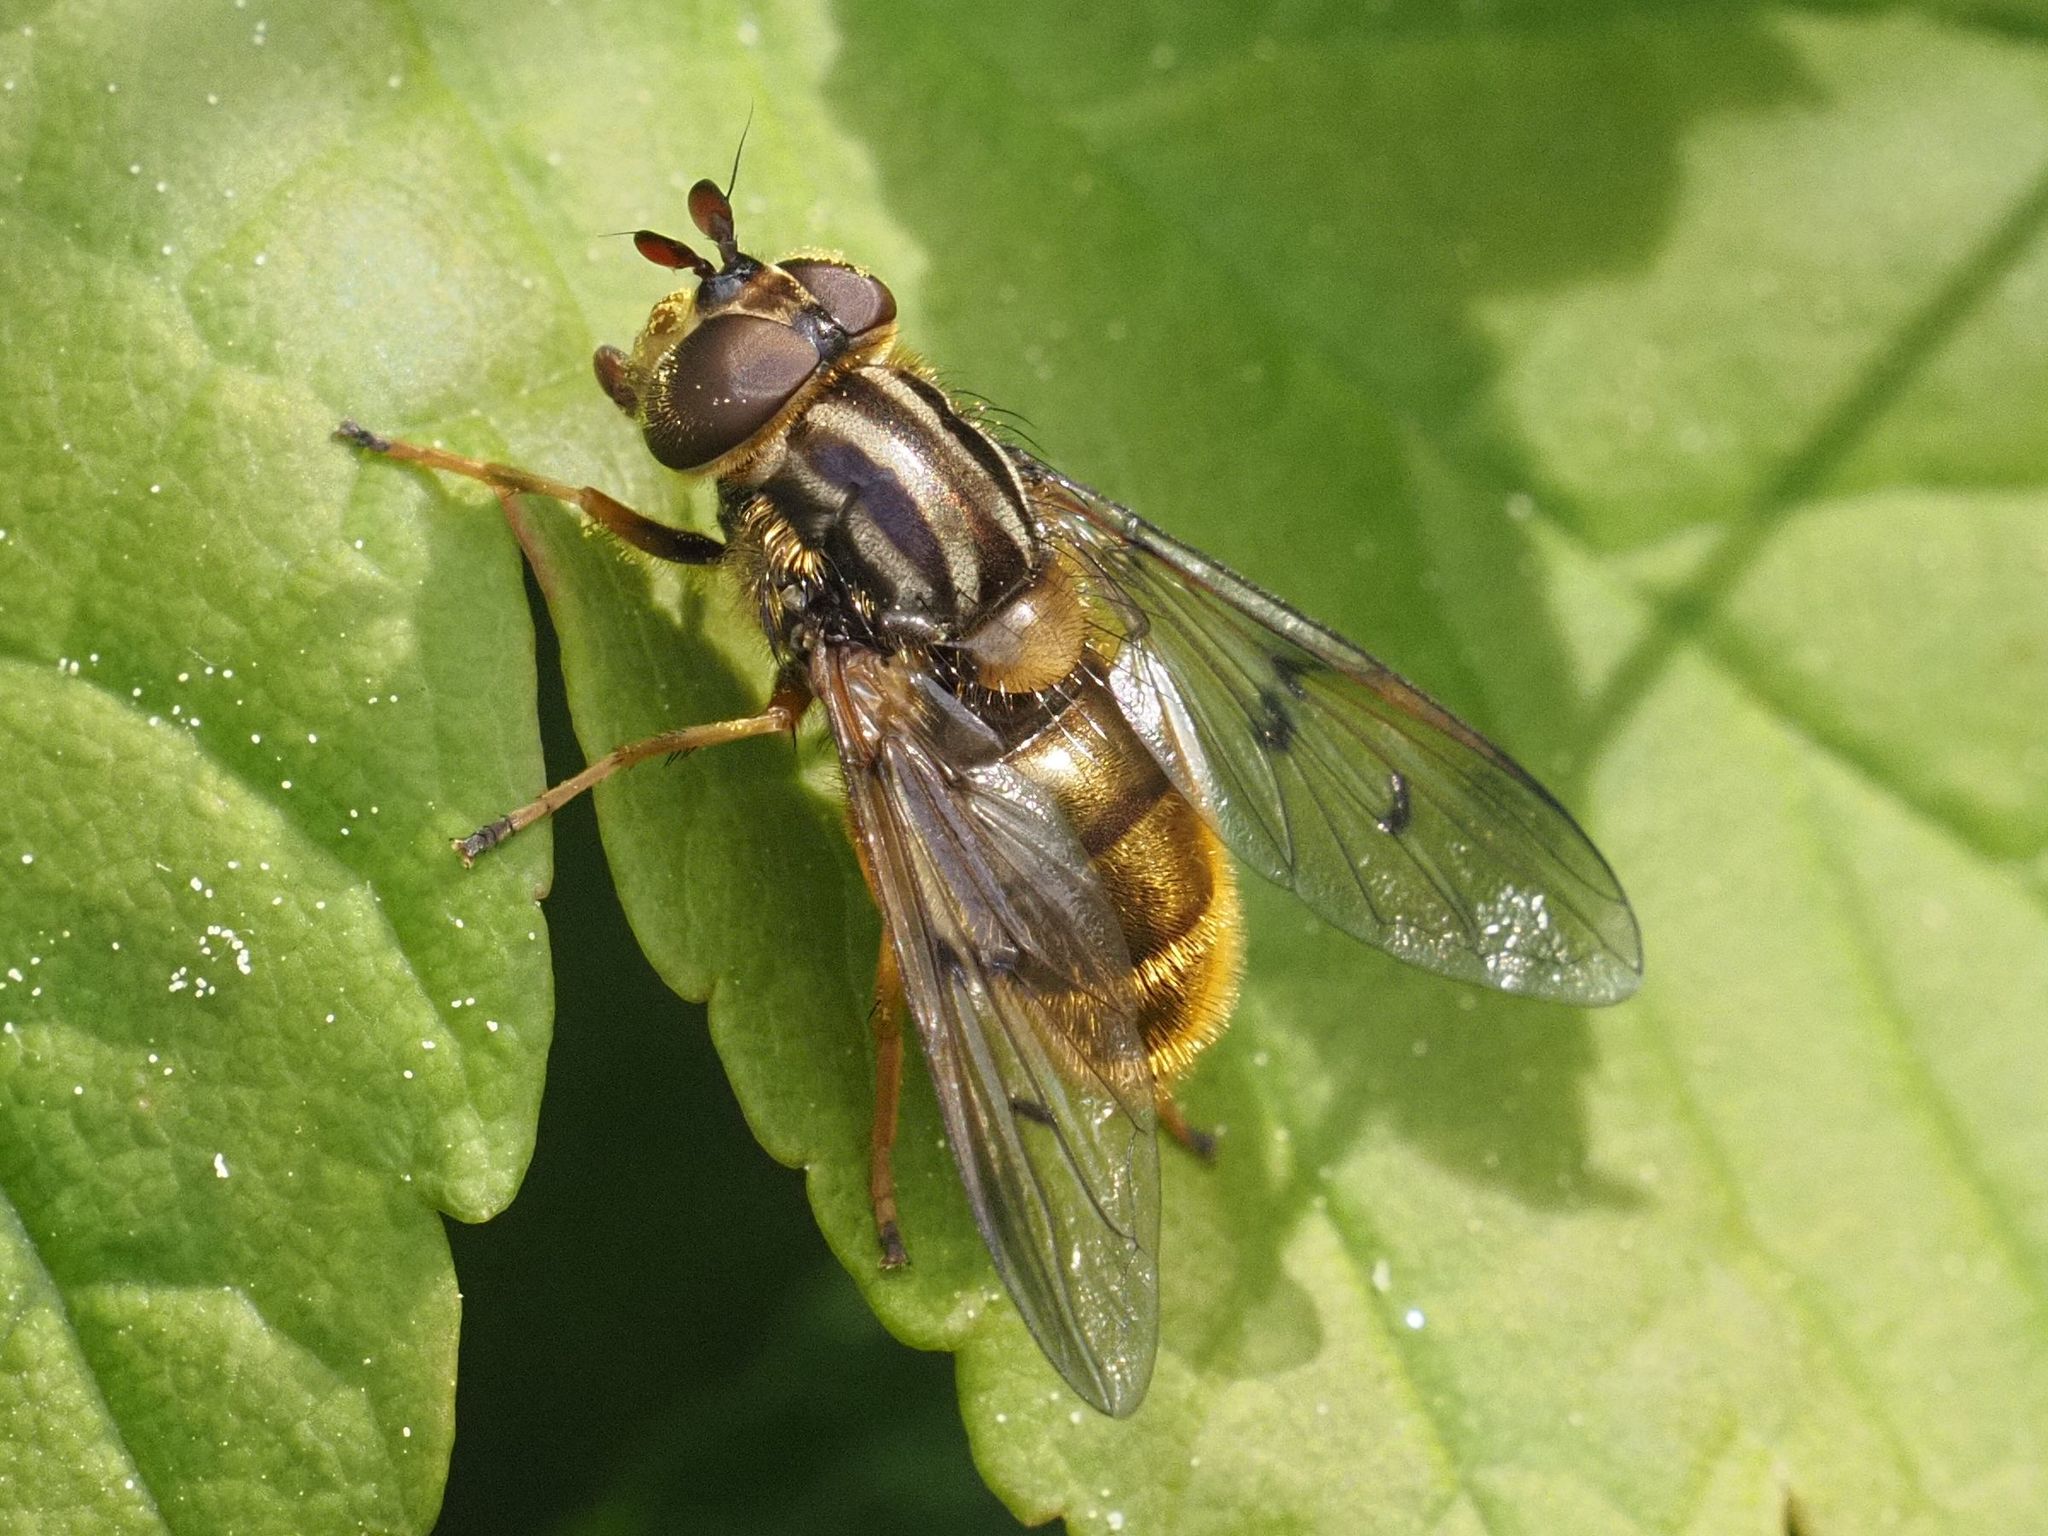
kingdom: Animalia
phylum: Arthropoda
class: Insecta
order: Diptera
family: Syrphidae
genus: Ferdinandea
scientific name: Ferdinandea cuprea
